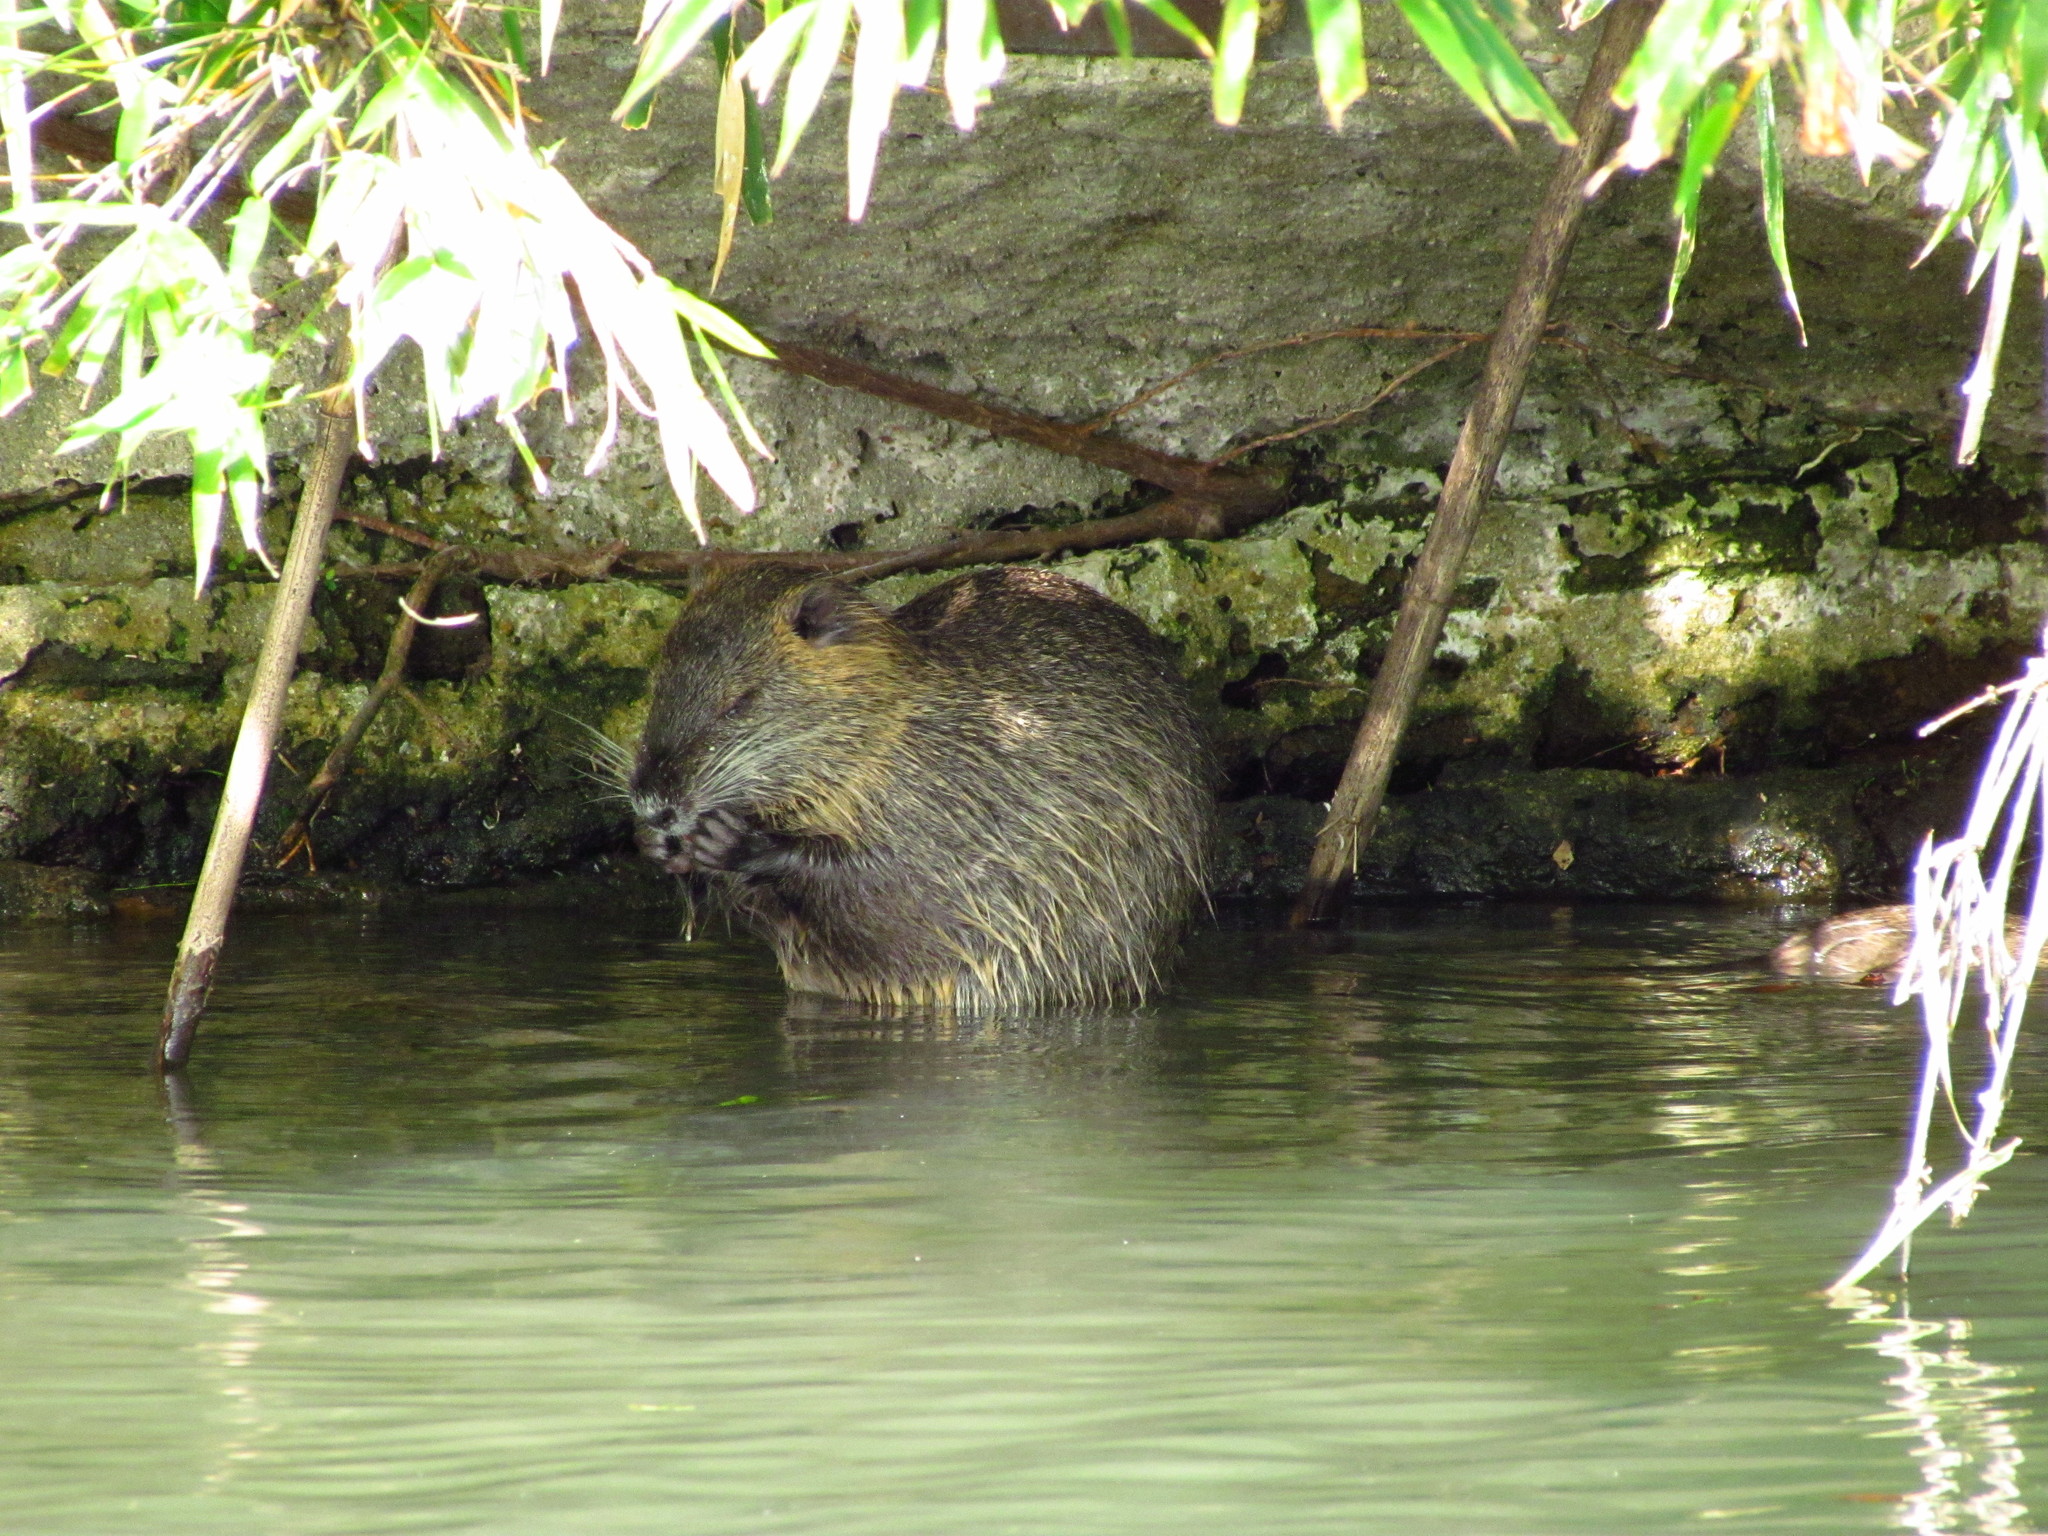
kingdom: Animalia
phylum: Chordata
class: Mammalia
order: Rodentia
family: Myocastoridae
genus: Myocastor
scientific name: Myocastor coypus
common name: Coypu
